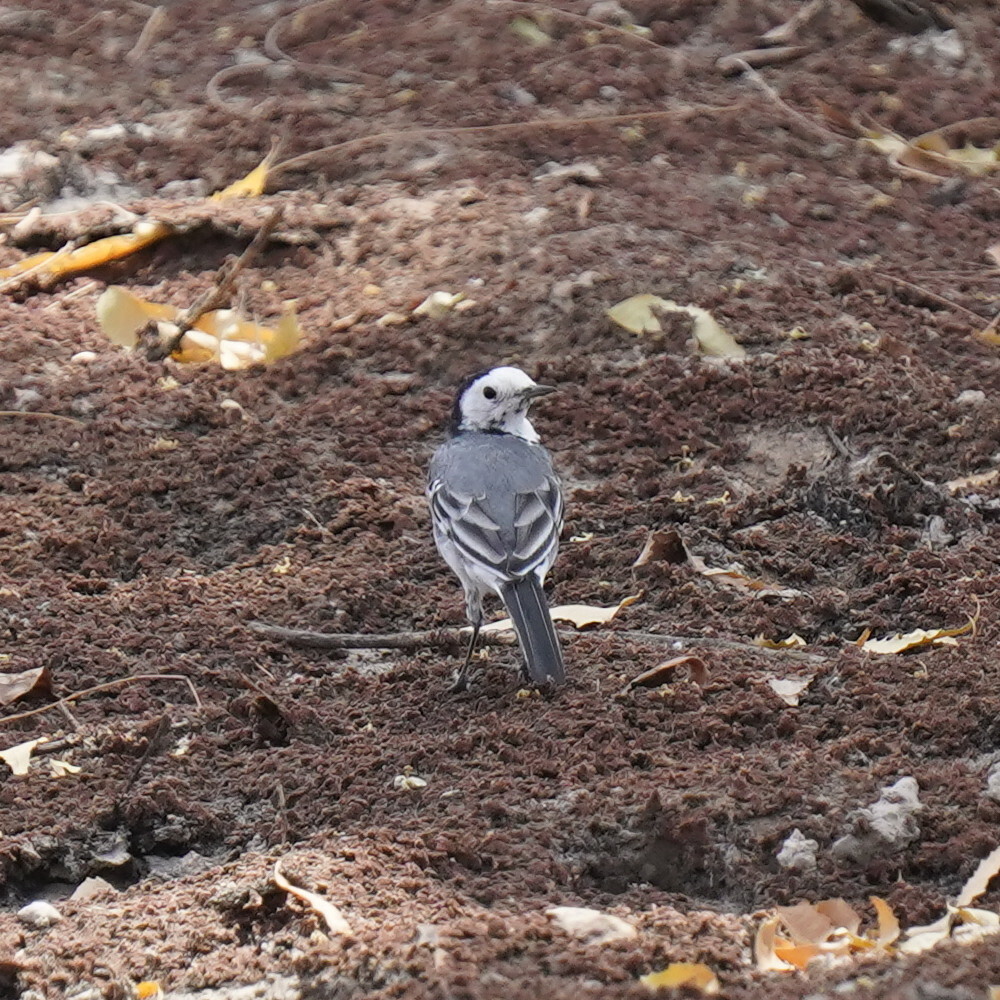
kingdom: Animalia
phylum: Chordata
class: Aves
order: Passeriformes
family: Motacillidae
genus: Motacilla
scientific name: Motacilla alba
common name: White wagtail
